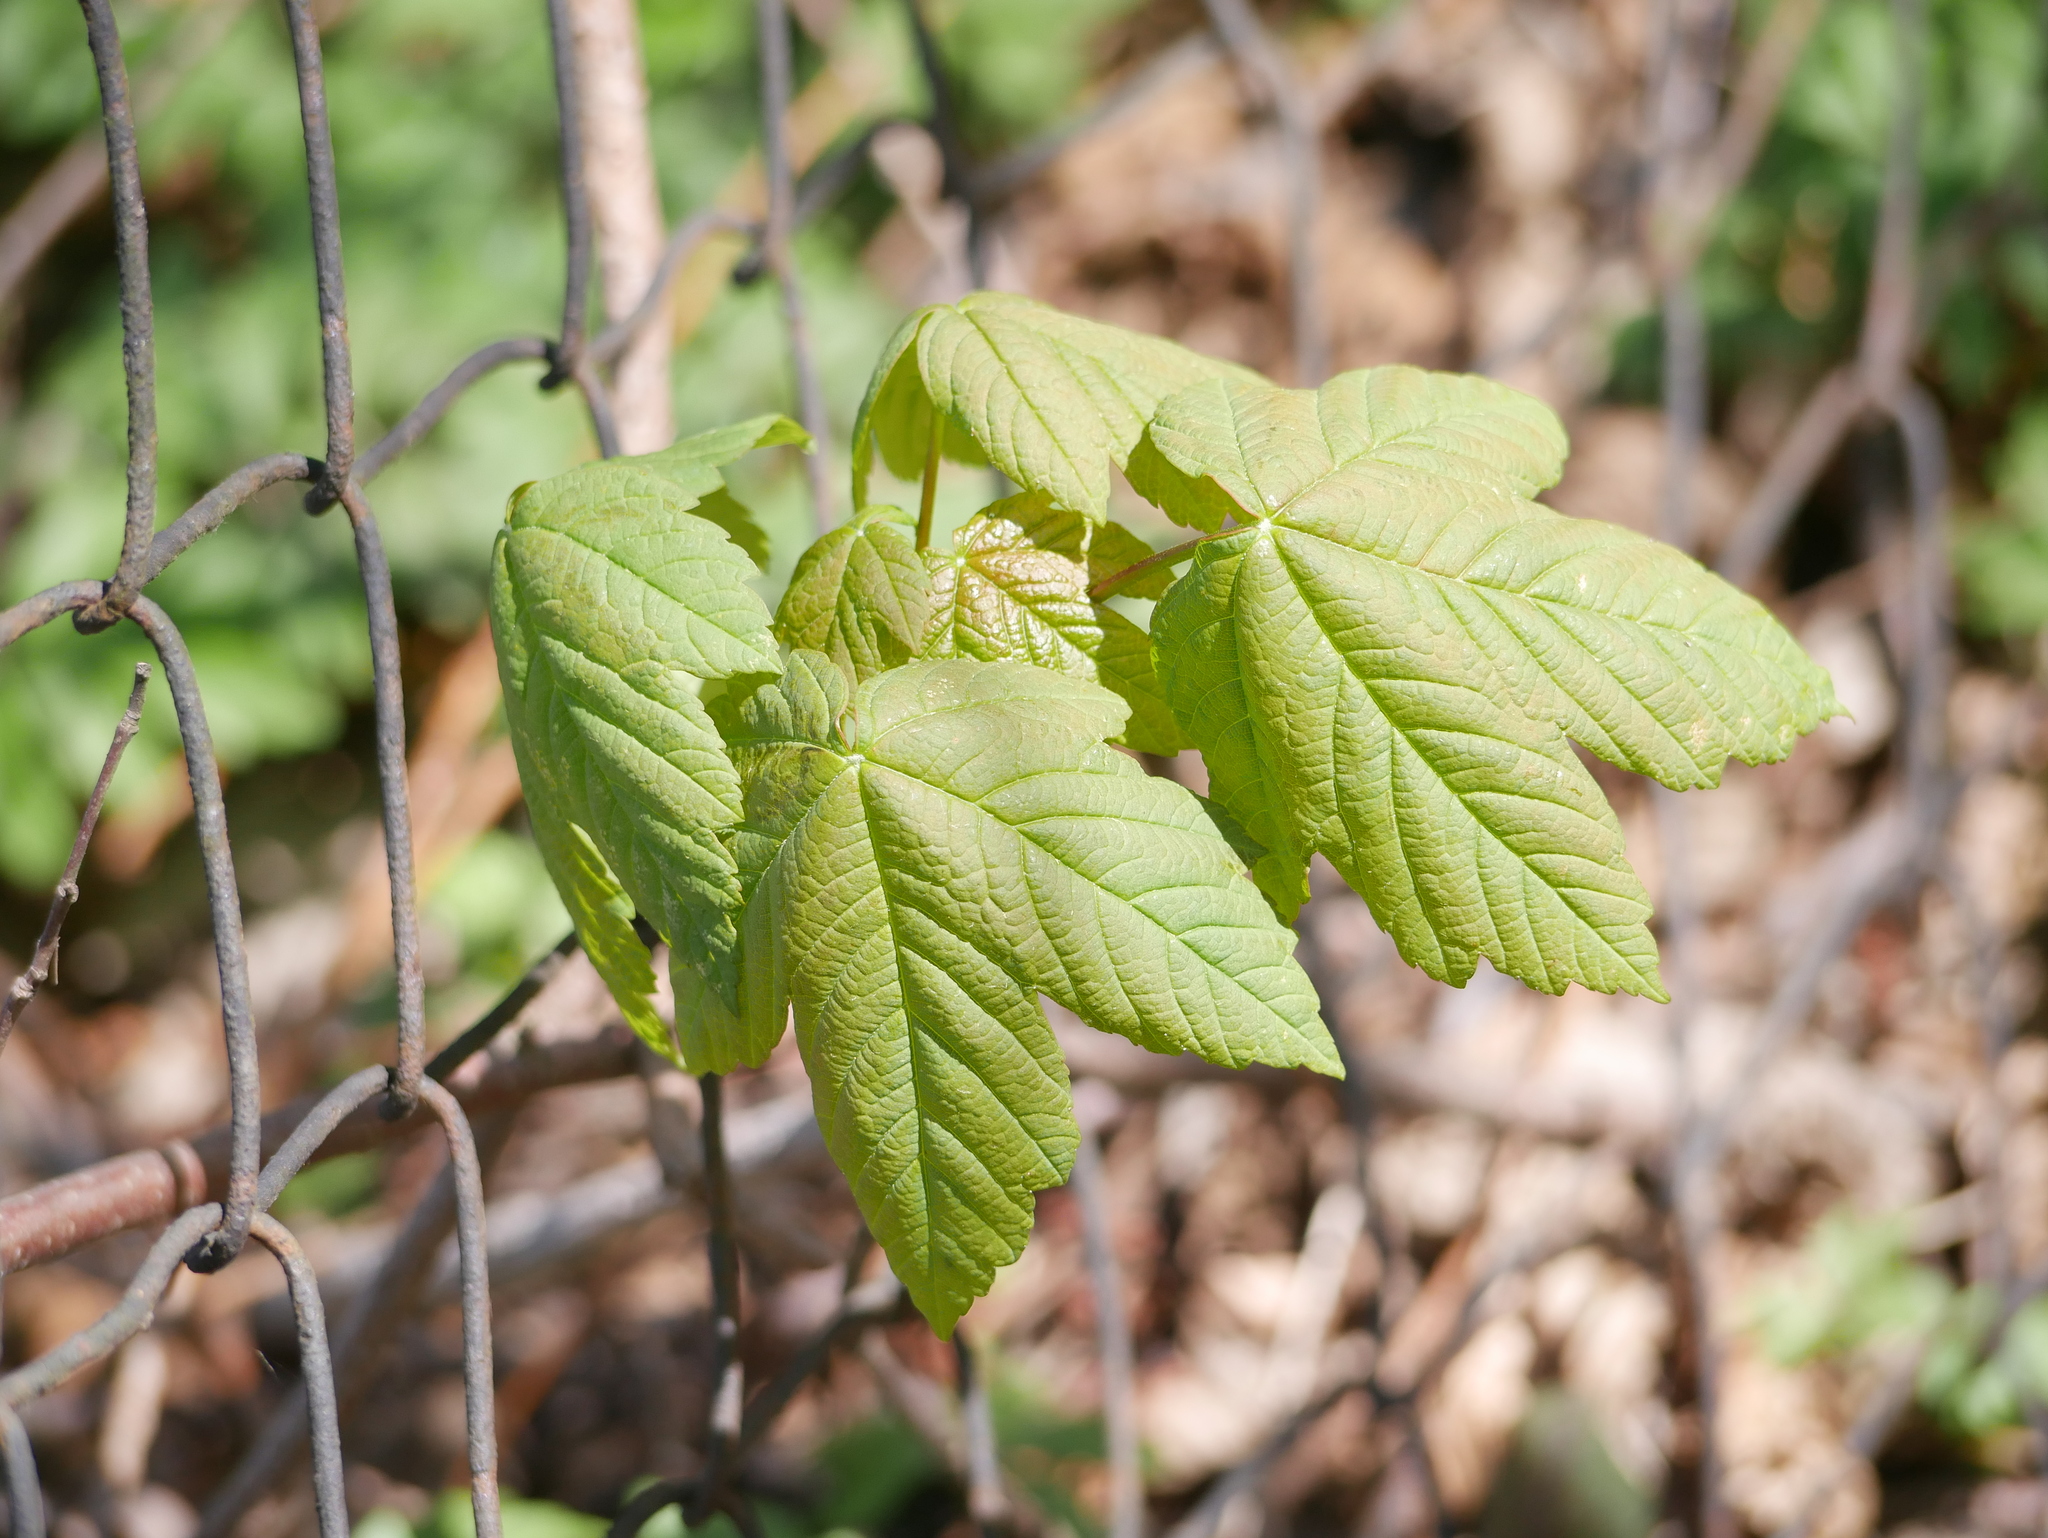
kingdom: Plantae
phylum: Tracheophyta
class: Magnoliopsida
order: Sapindales
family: Sapindaceae
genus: Acer
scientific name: Acer pseudoplatanus
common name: Sycamore
